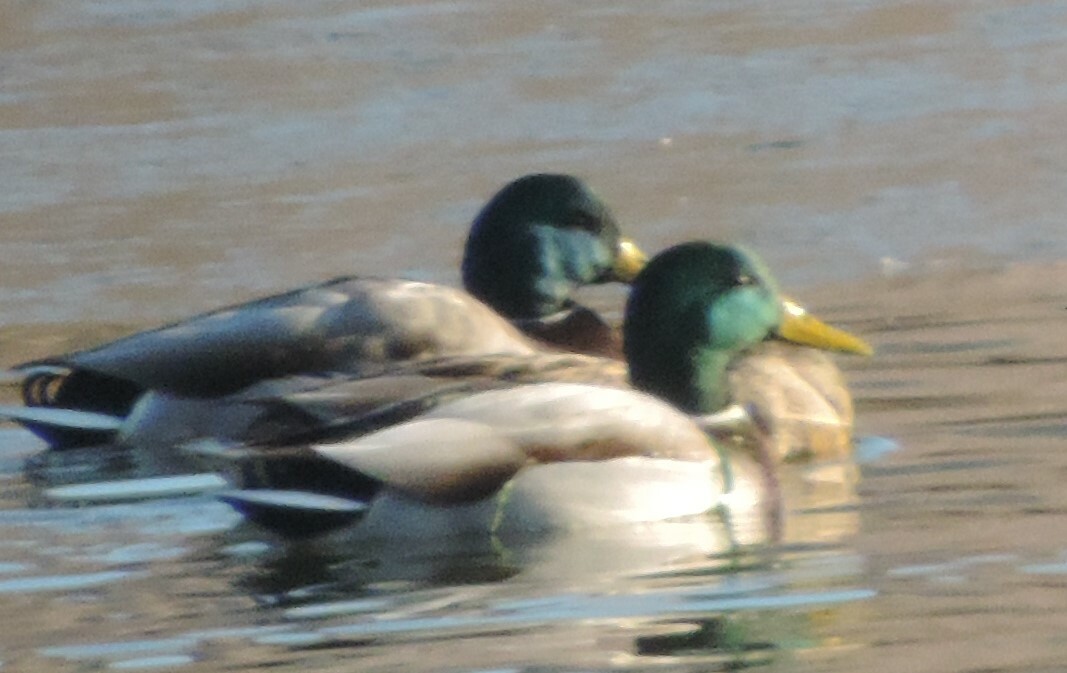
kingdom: Animalia
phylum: Chordata
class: Aves
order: Anseriformes
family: Anatidae
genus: Anas
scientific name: Anas platyrhynchos
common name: Mallard
